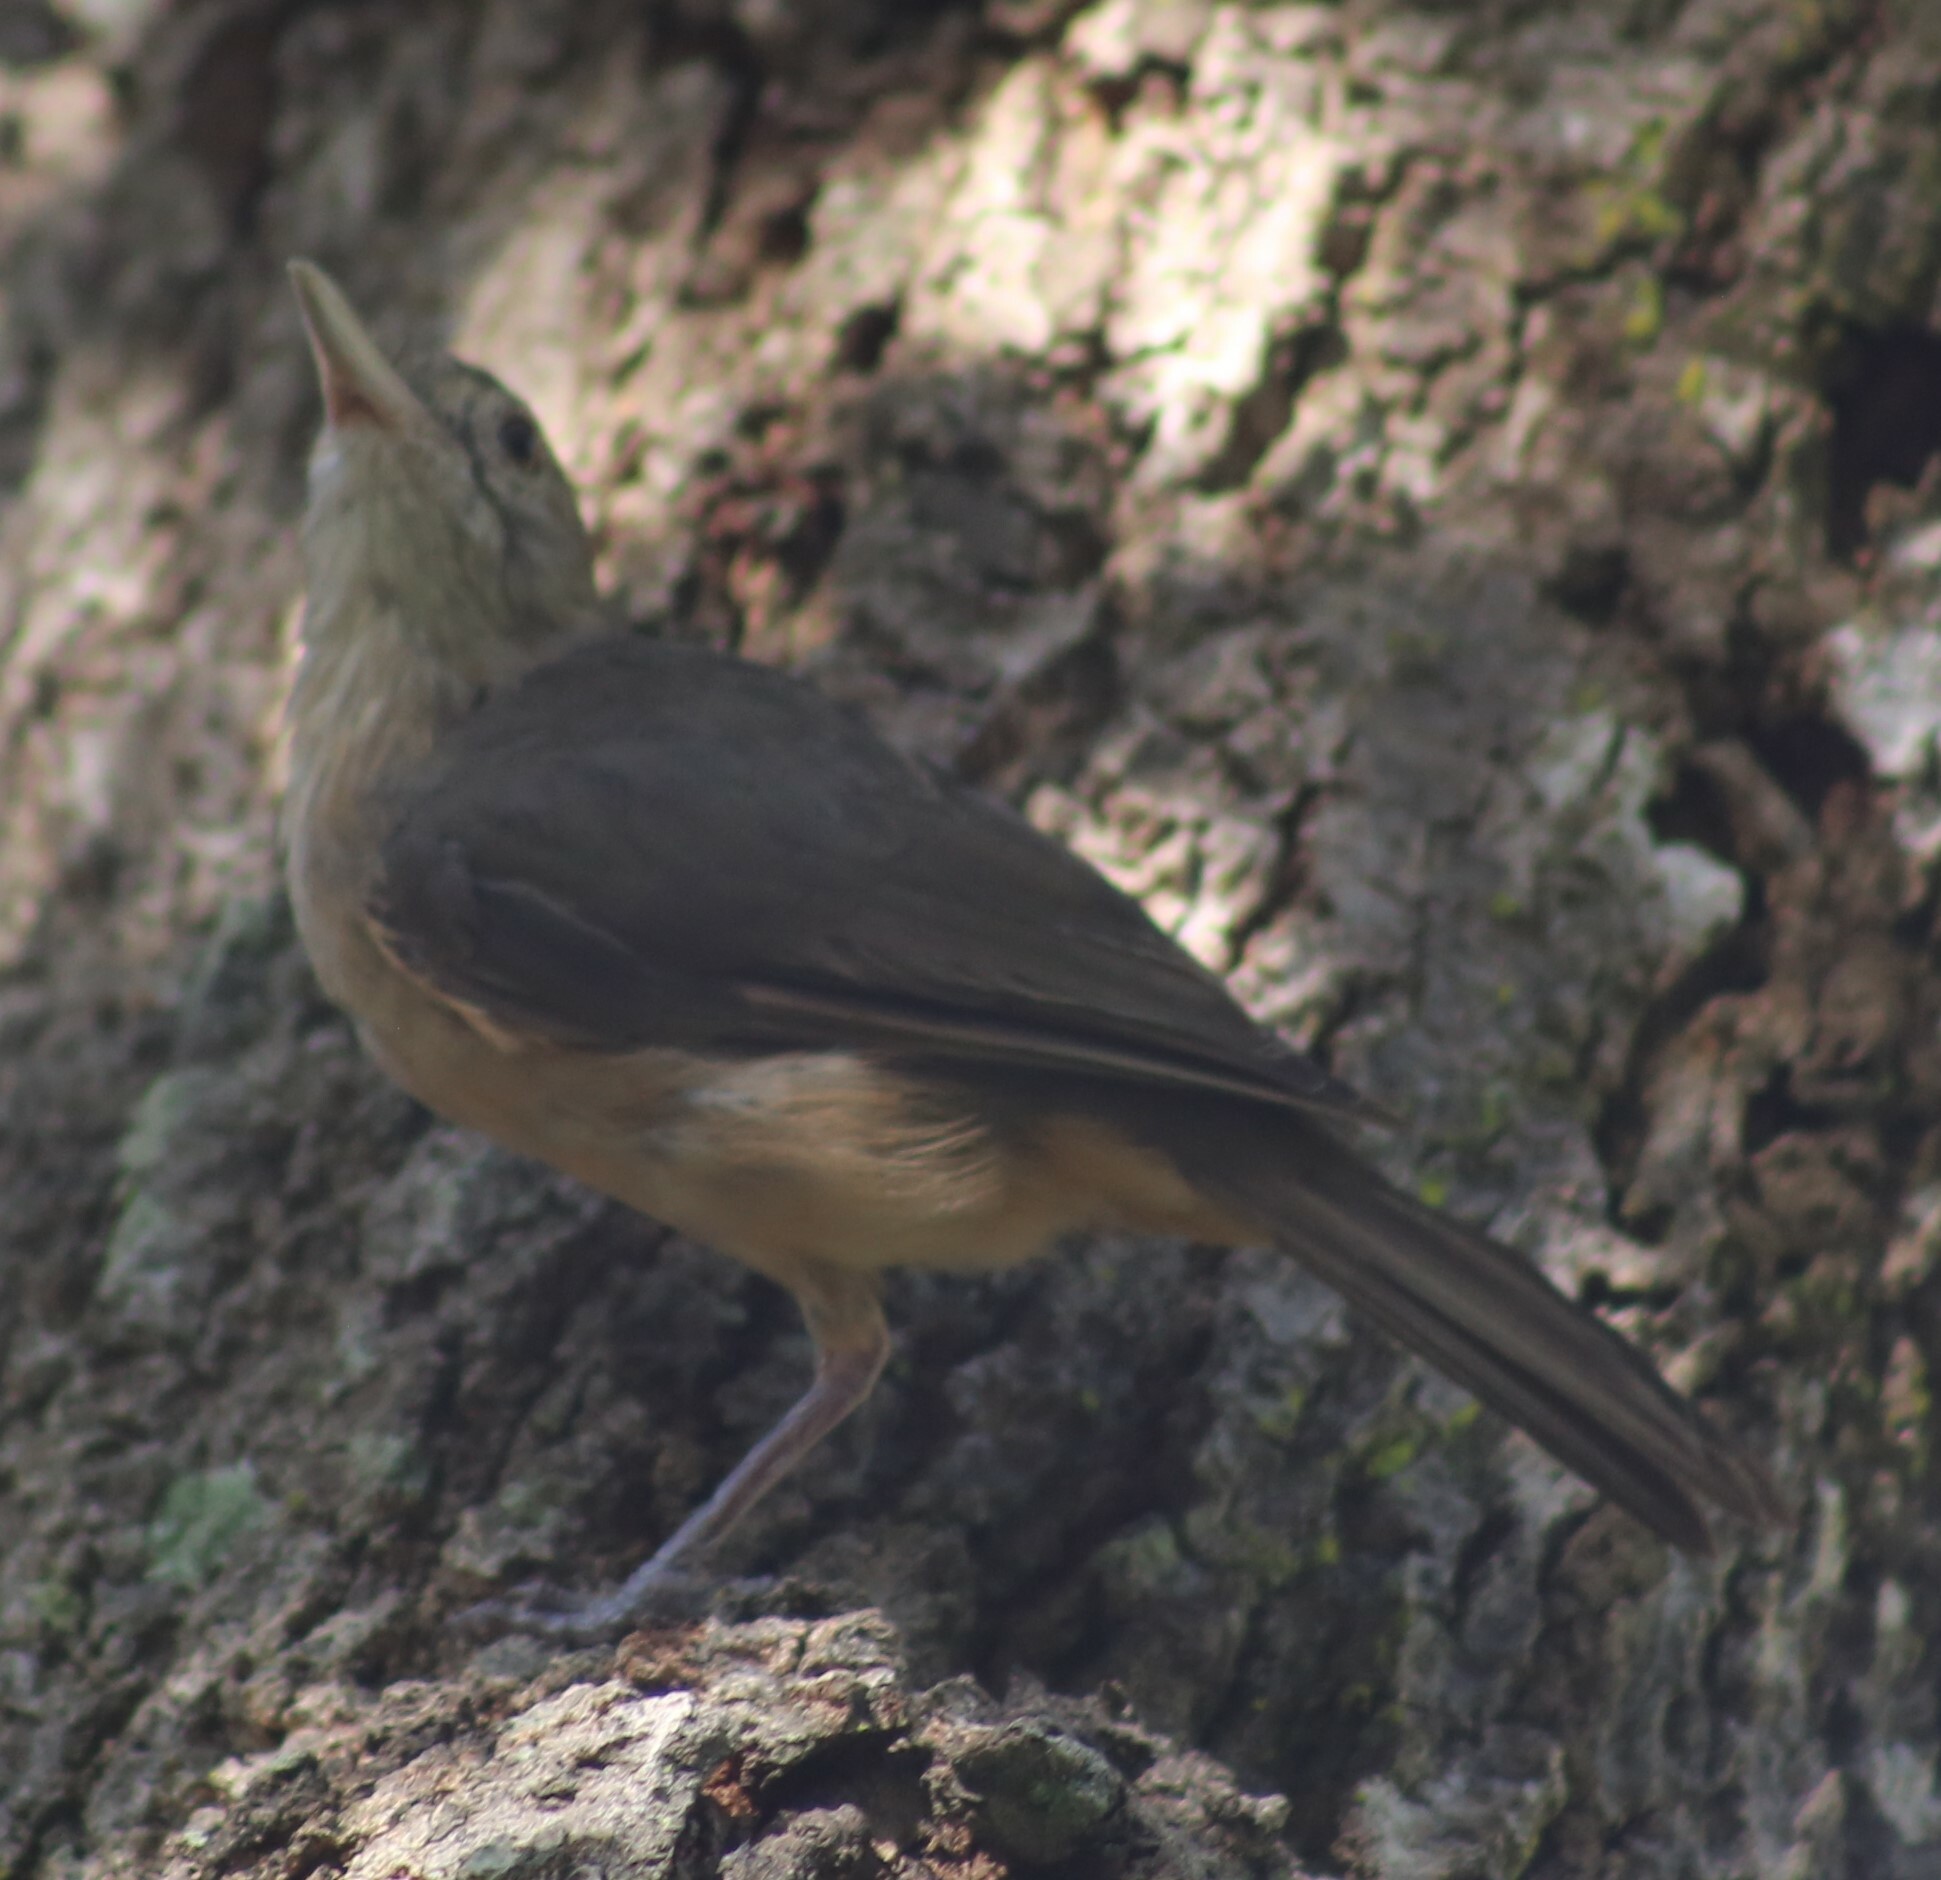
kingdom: Animalia
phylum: Chordata
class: Aves
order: Passeriformes
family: Pachycephalidae
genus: Colluricincla
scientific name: Colluricincla rufogaster
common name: Rufous shrikethrush
